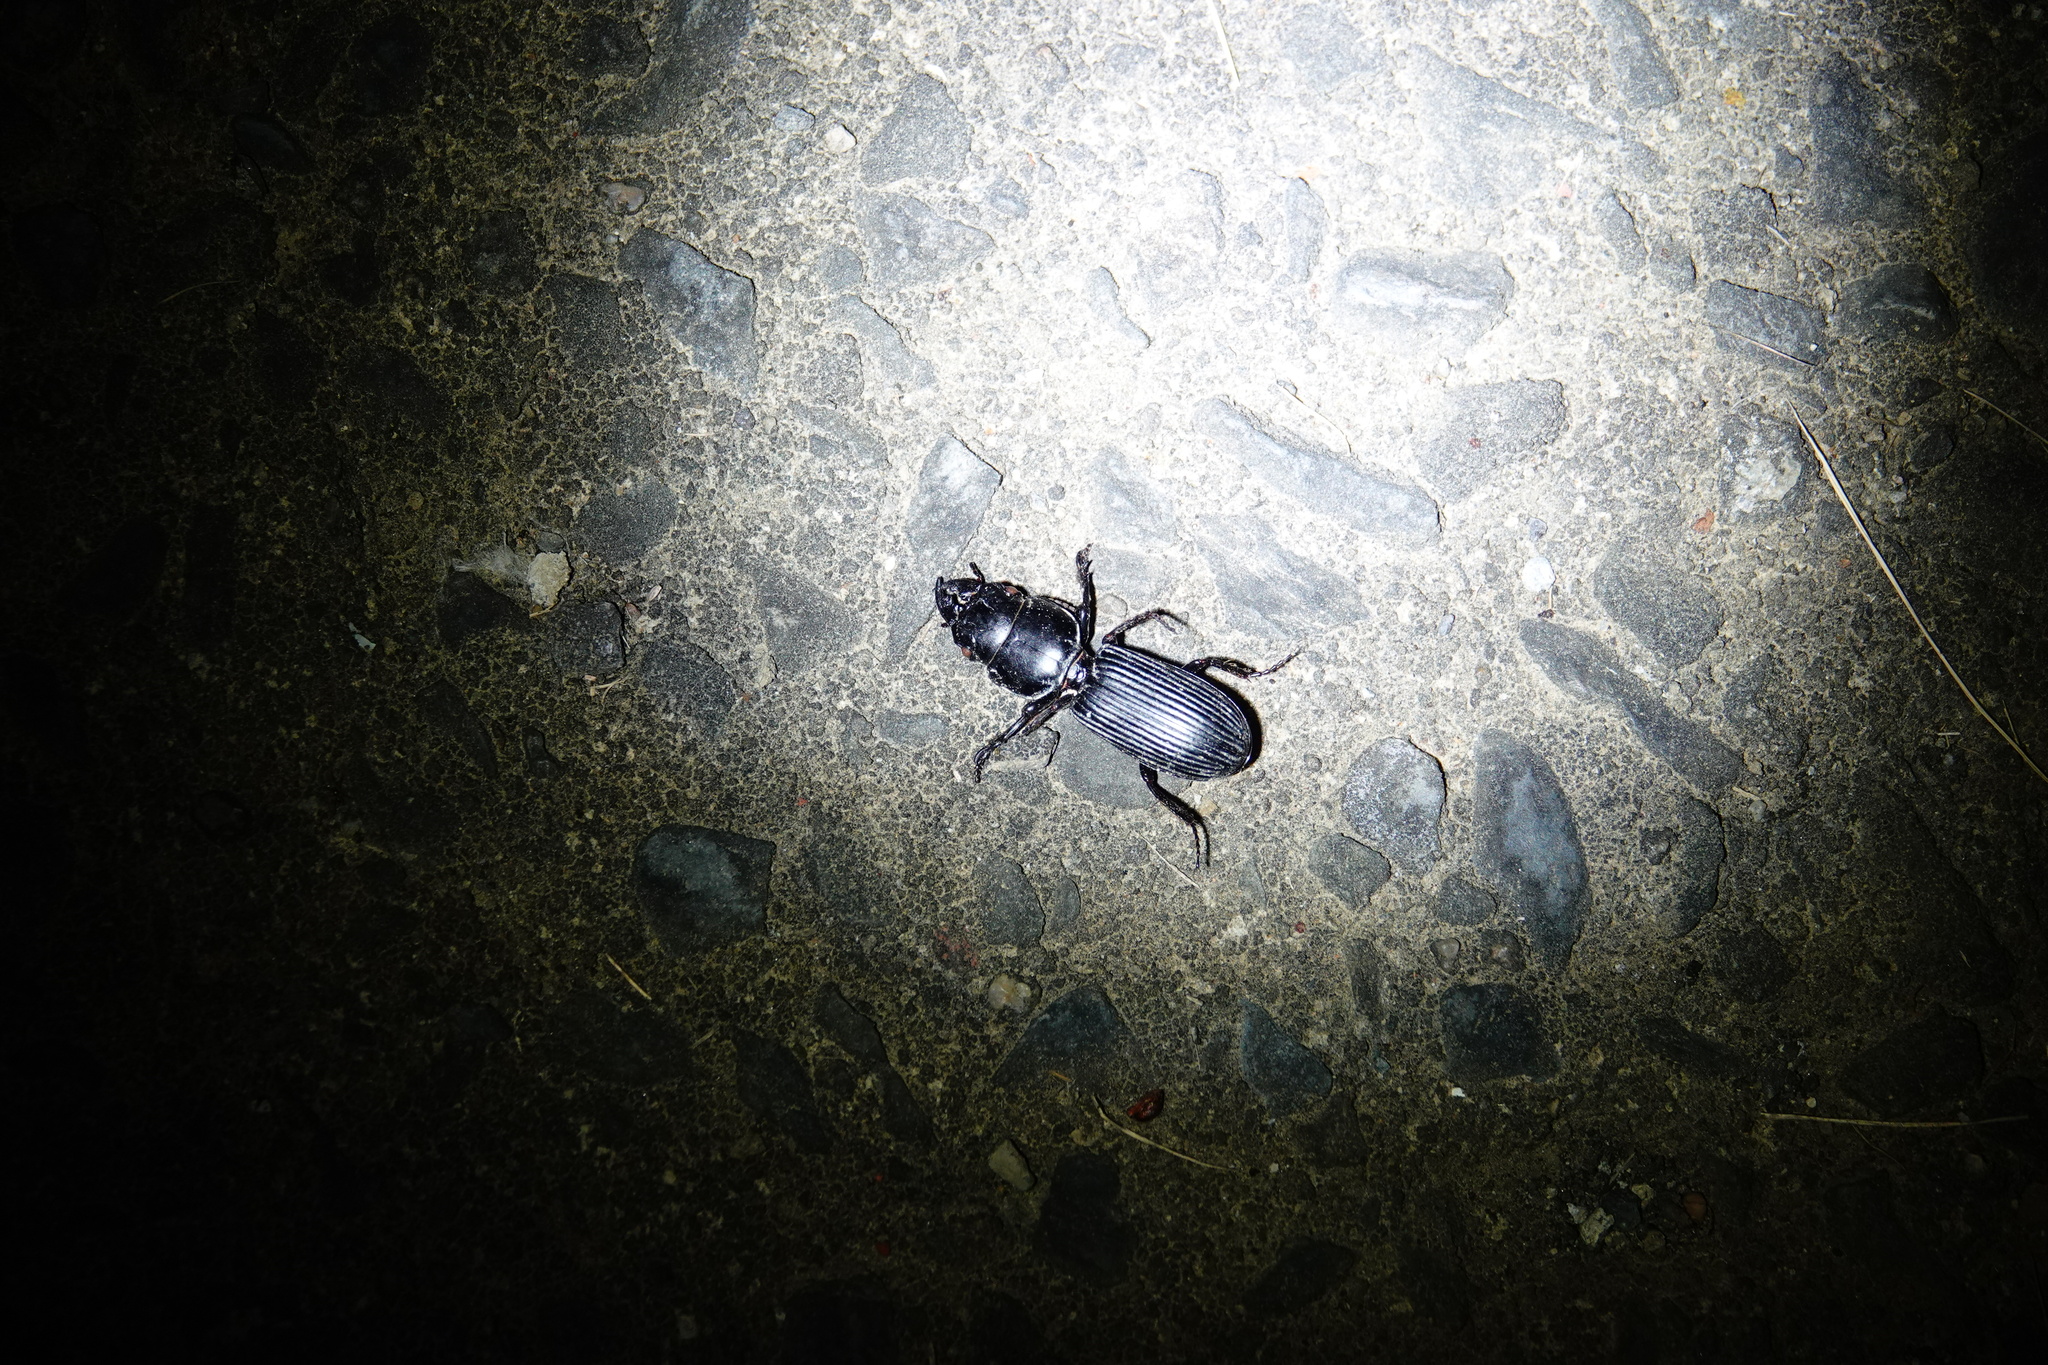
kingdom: Animalia
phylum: Arthropoda
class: Insecta
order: Coleoptera
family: Carabidae
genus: Scarites
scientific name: Scarites sulcatus
